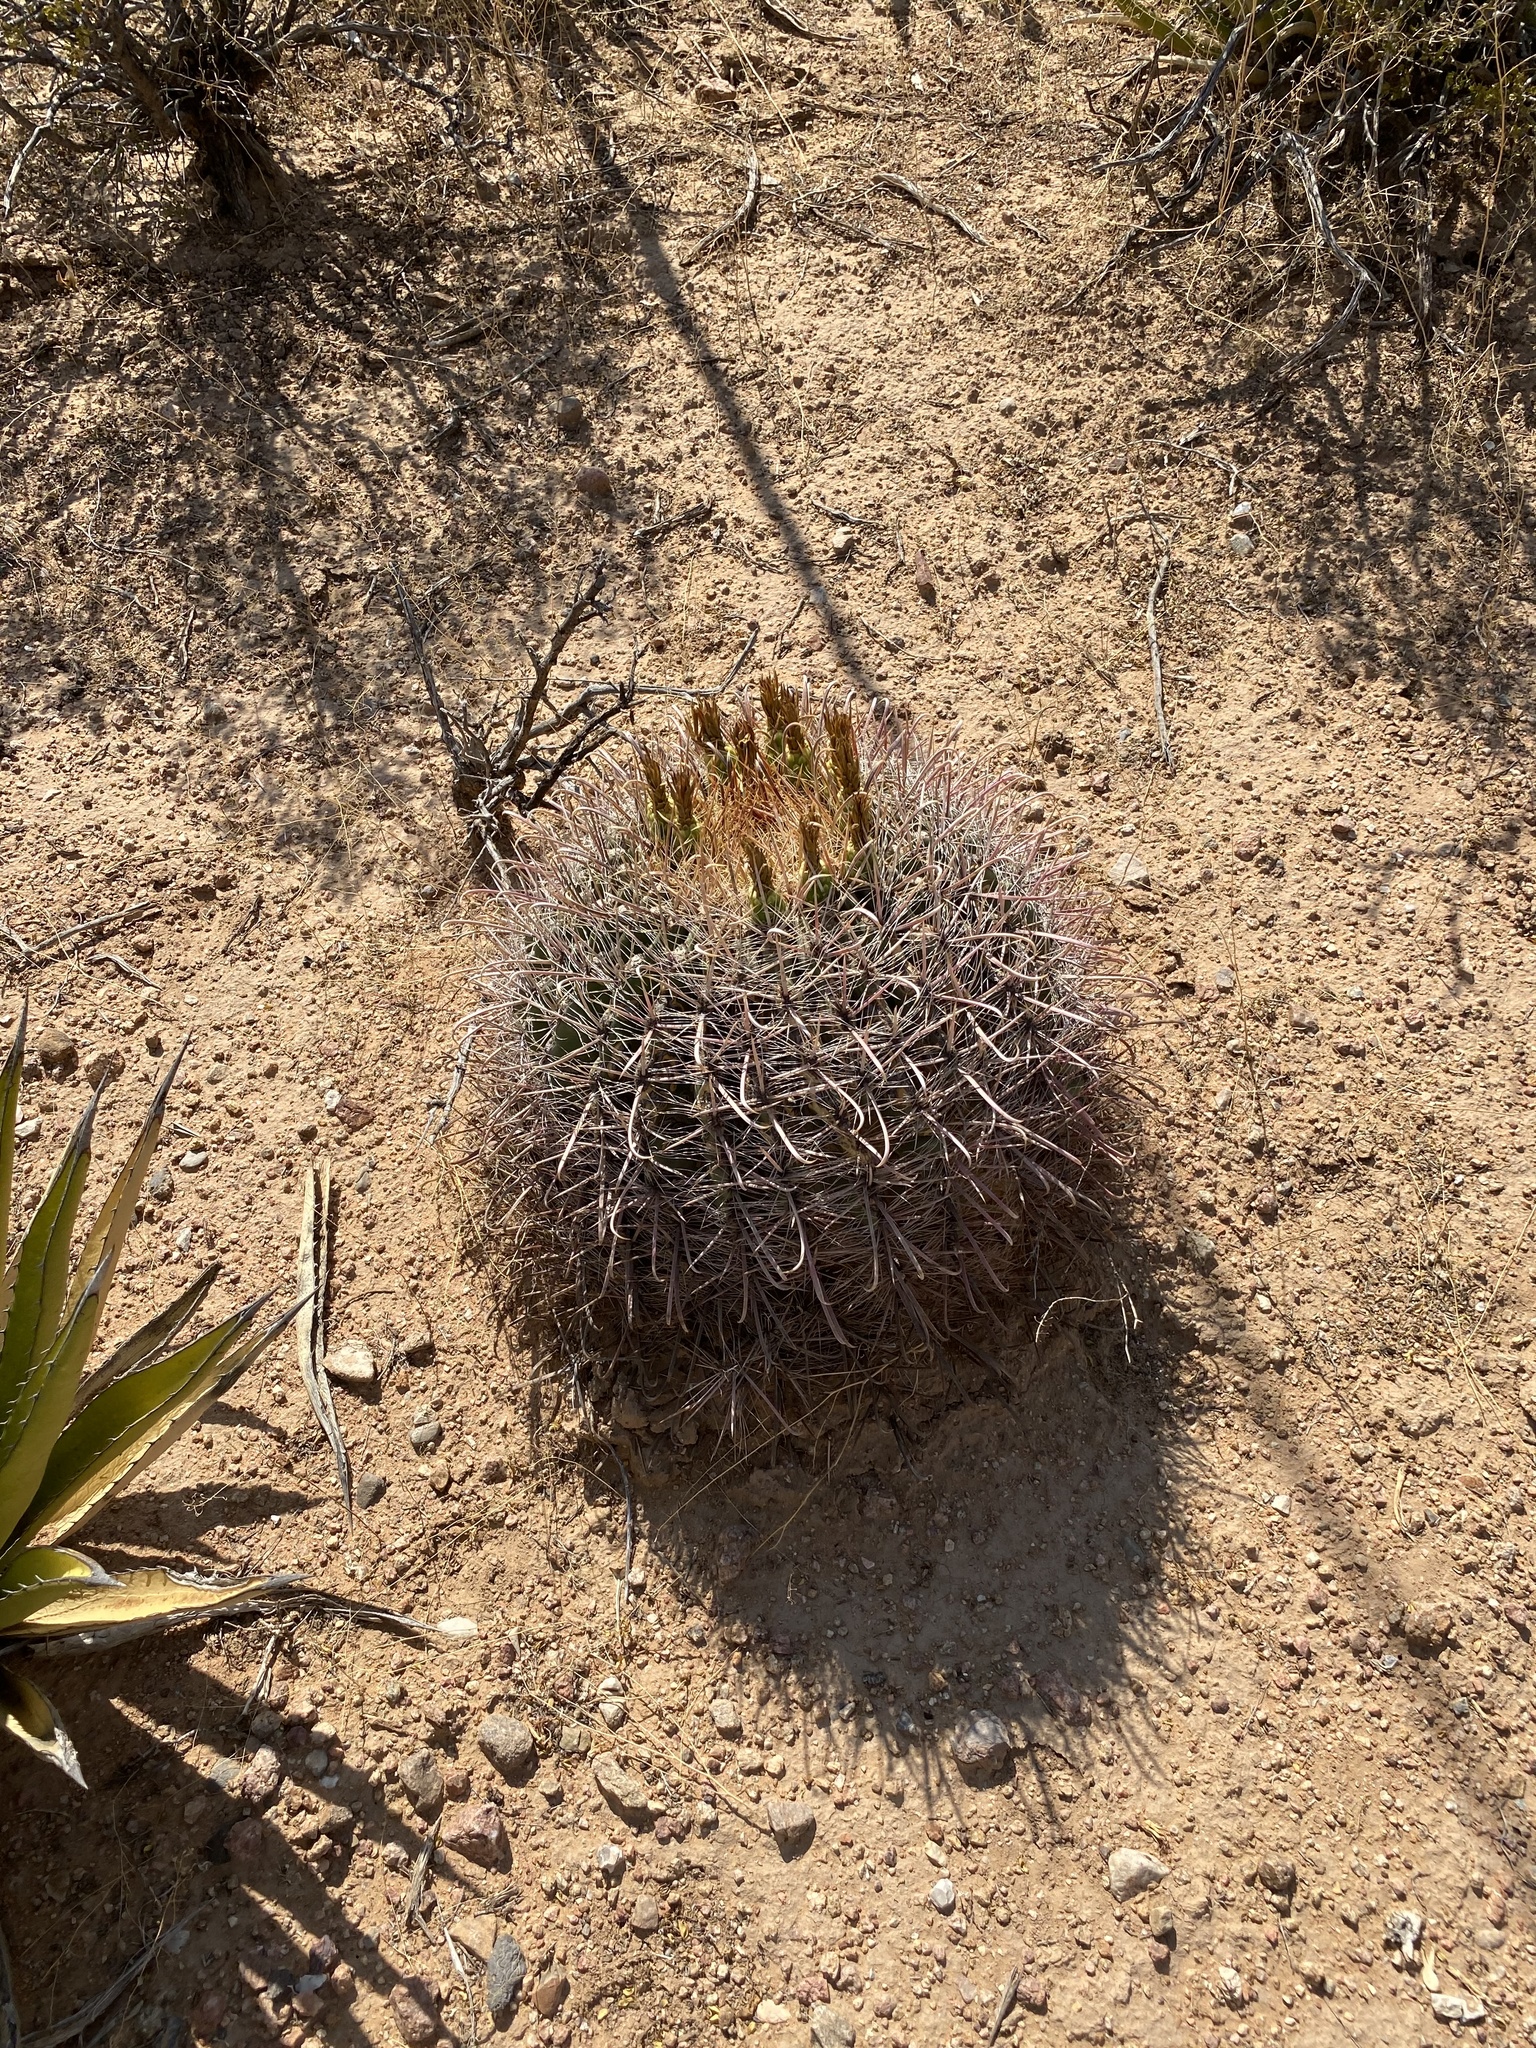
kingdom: Plantae
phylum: Tracheophyta
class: Magnoliopsida
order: Caryophyllales
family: Cactaceae
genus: Ferocactus
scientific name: Ferocactus wislizeni
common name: Candy barrel cactus
